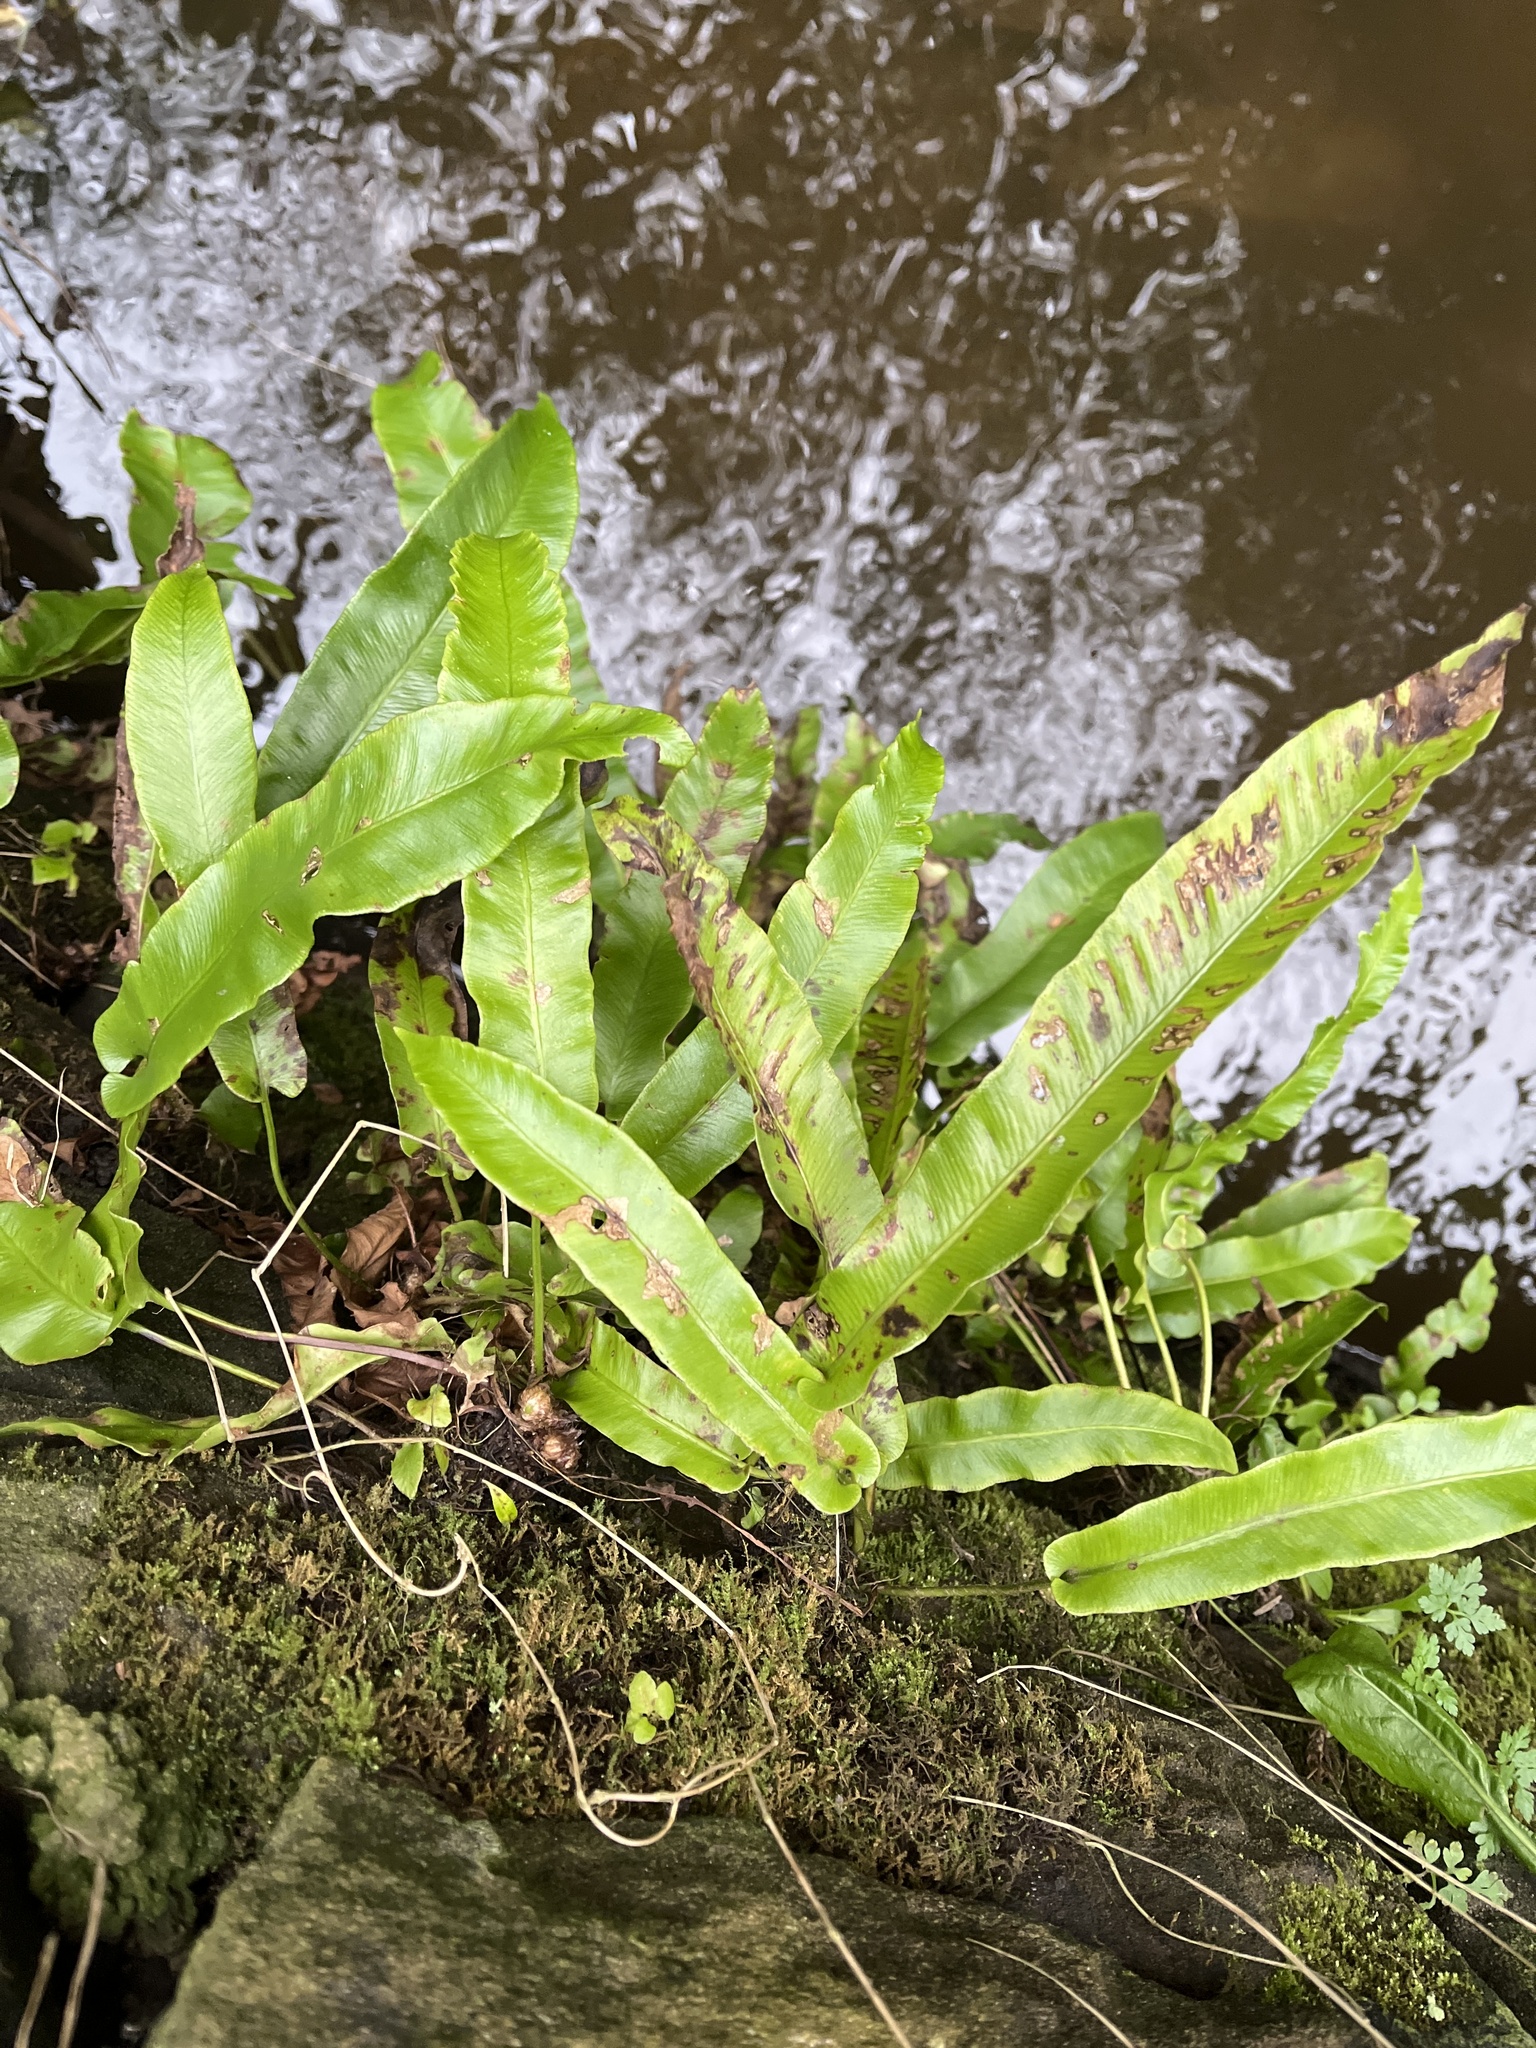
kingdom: Plantae
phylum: Tracheophyta
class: Polypodiopsida
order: Polypodiales
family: Aspleniaceae
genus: Asplenium
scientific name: Asplenium scolopendrium
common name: Hart's-tongue fern
